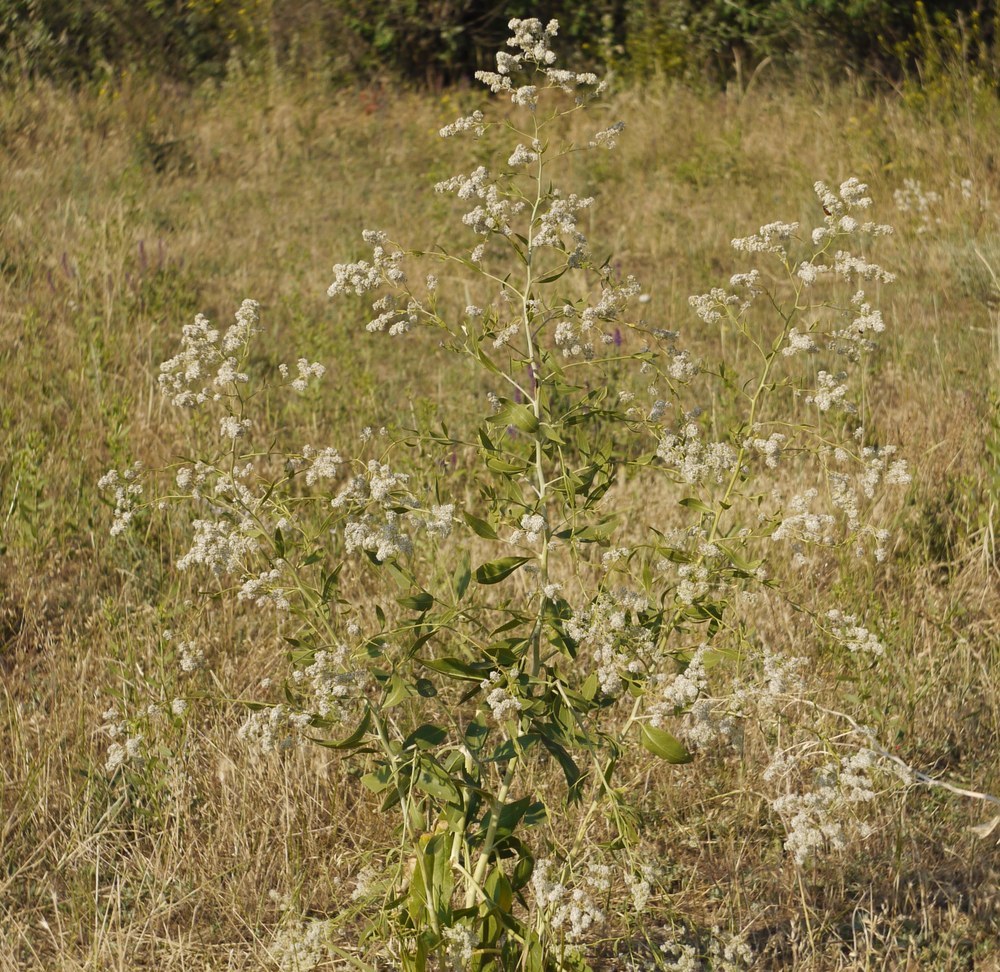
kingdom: Plantae
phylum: Tracheophyta
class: Magnoliopsida
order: Brassicales
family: Brassicaceae
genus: Lepidium
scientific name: Lepidium latifolium
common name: Dittander
